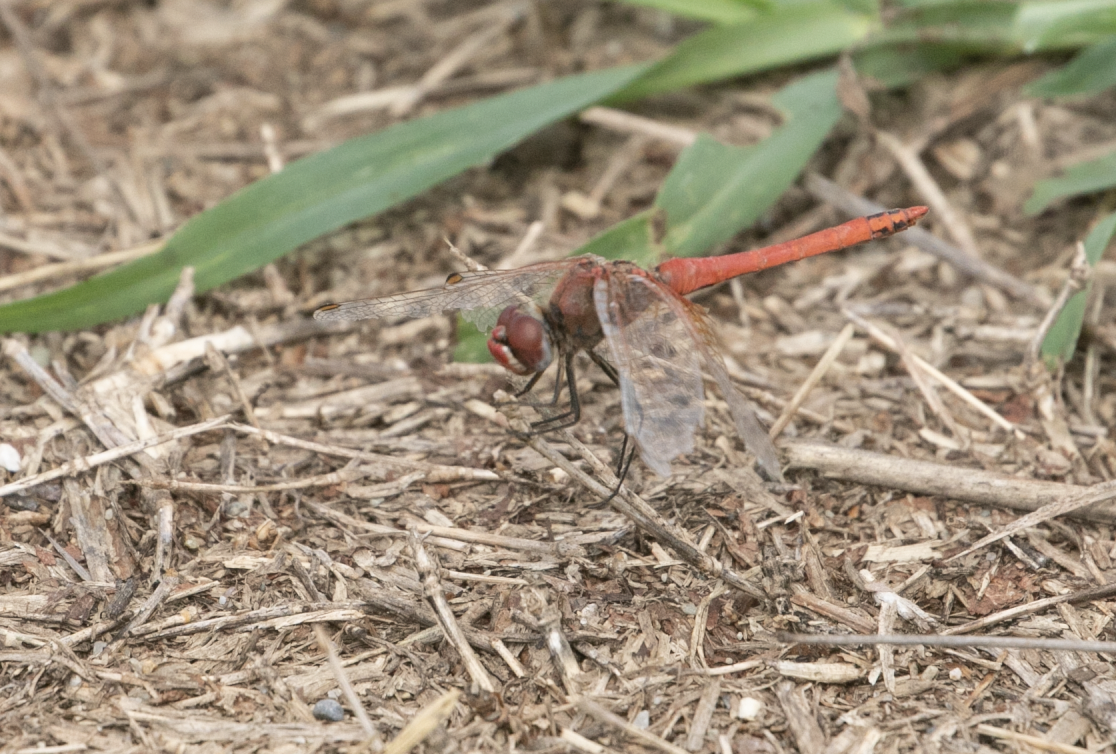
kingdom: Animalia
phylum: Arthropoda
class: Insecta
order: Odonata
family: Libellulidae
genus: Sympetrum
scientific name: Sympetrum fonscolombii
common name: Red-veined darter
